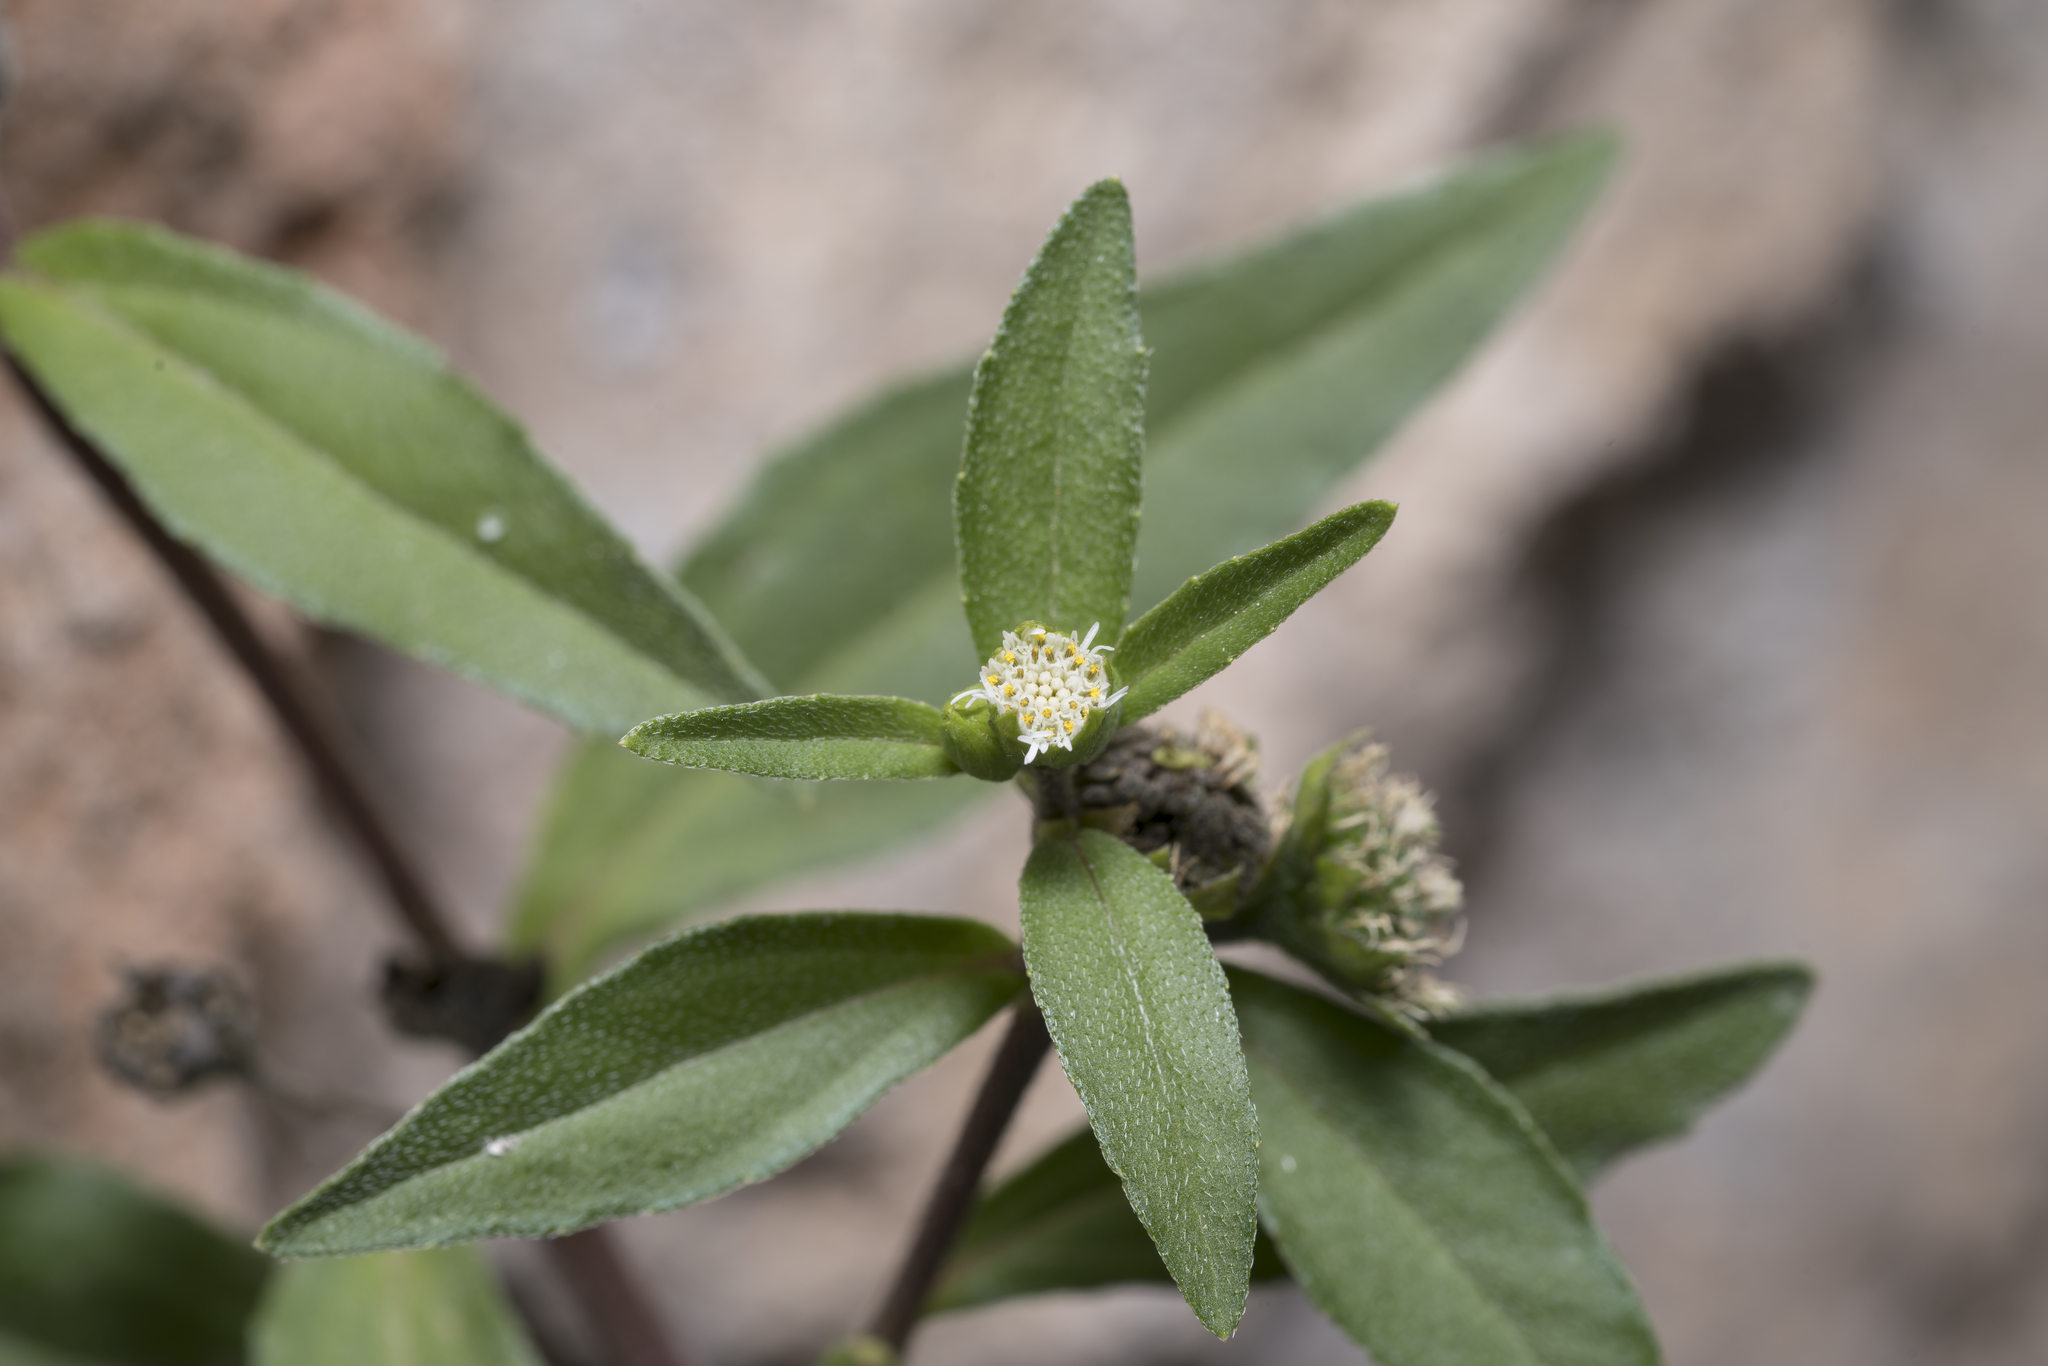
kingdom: Plantae
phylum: Tracheophyta
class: Magnoliopsida
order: Asterales
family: Asteraceae
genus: Eclipta
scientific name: Eclipta prostrata
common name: False daisy
